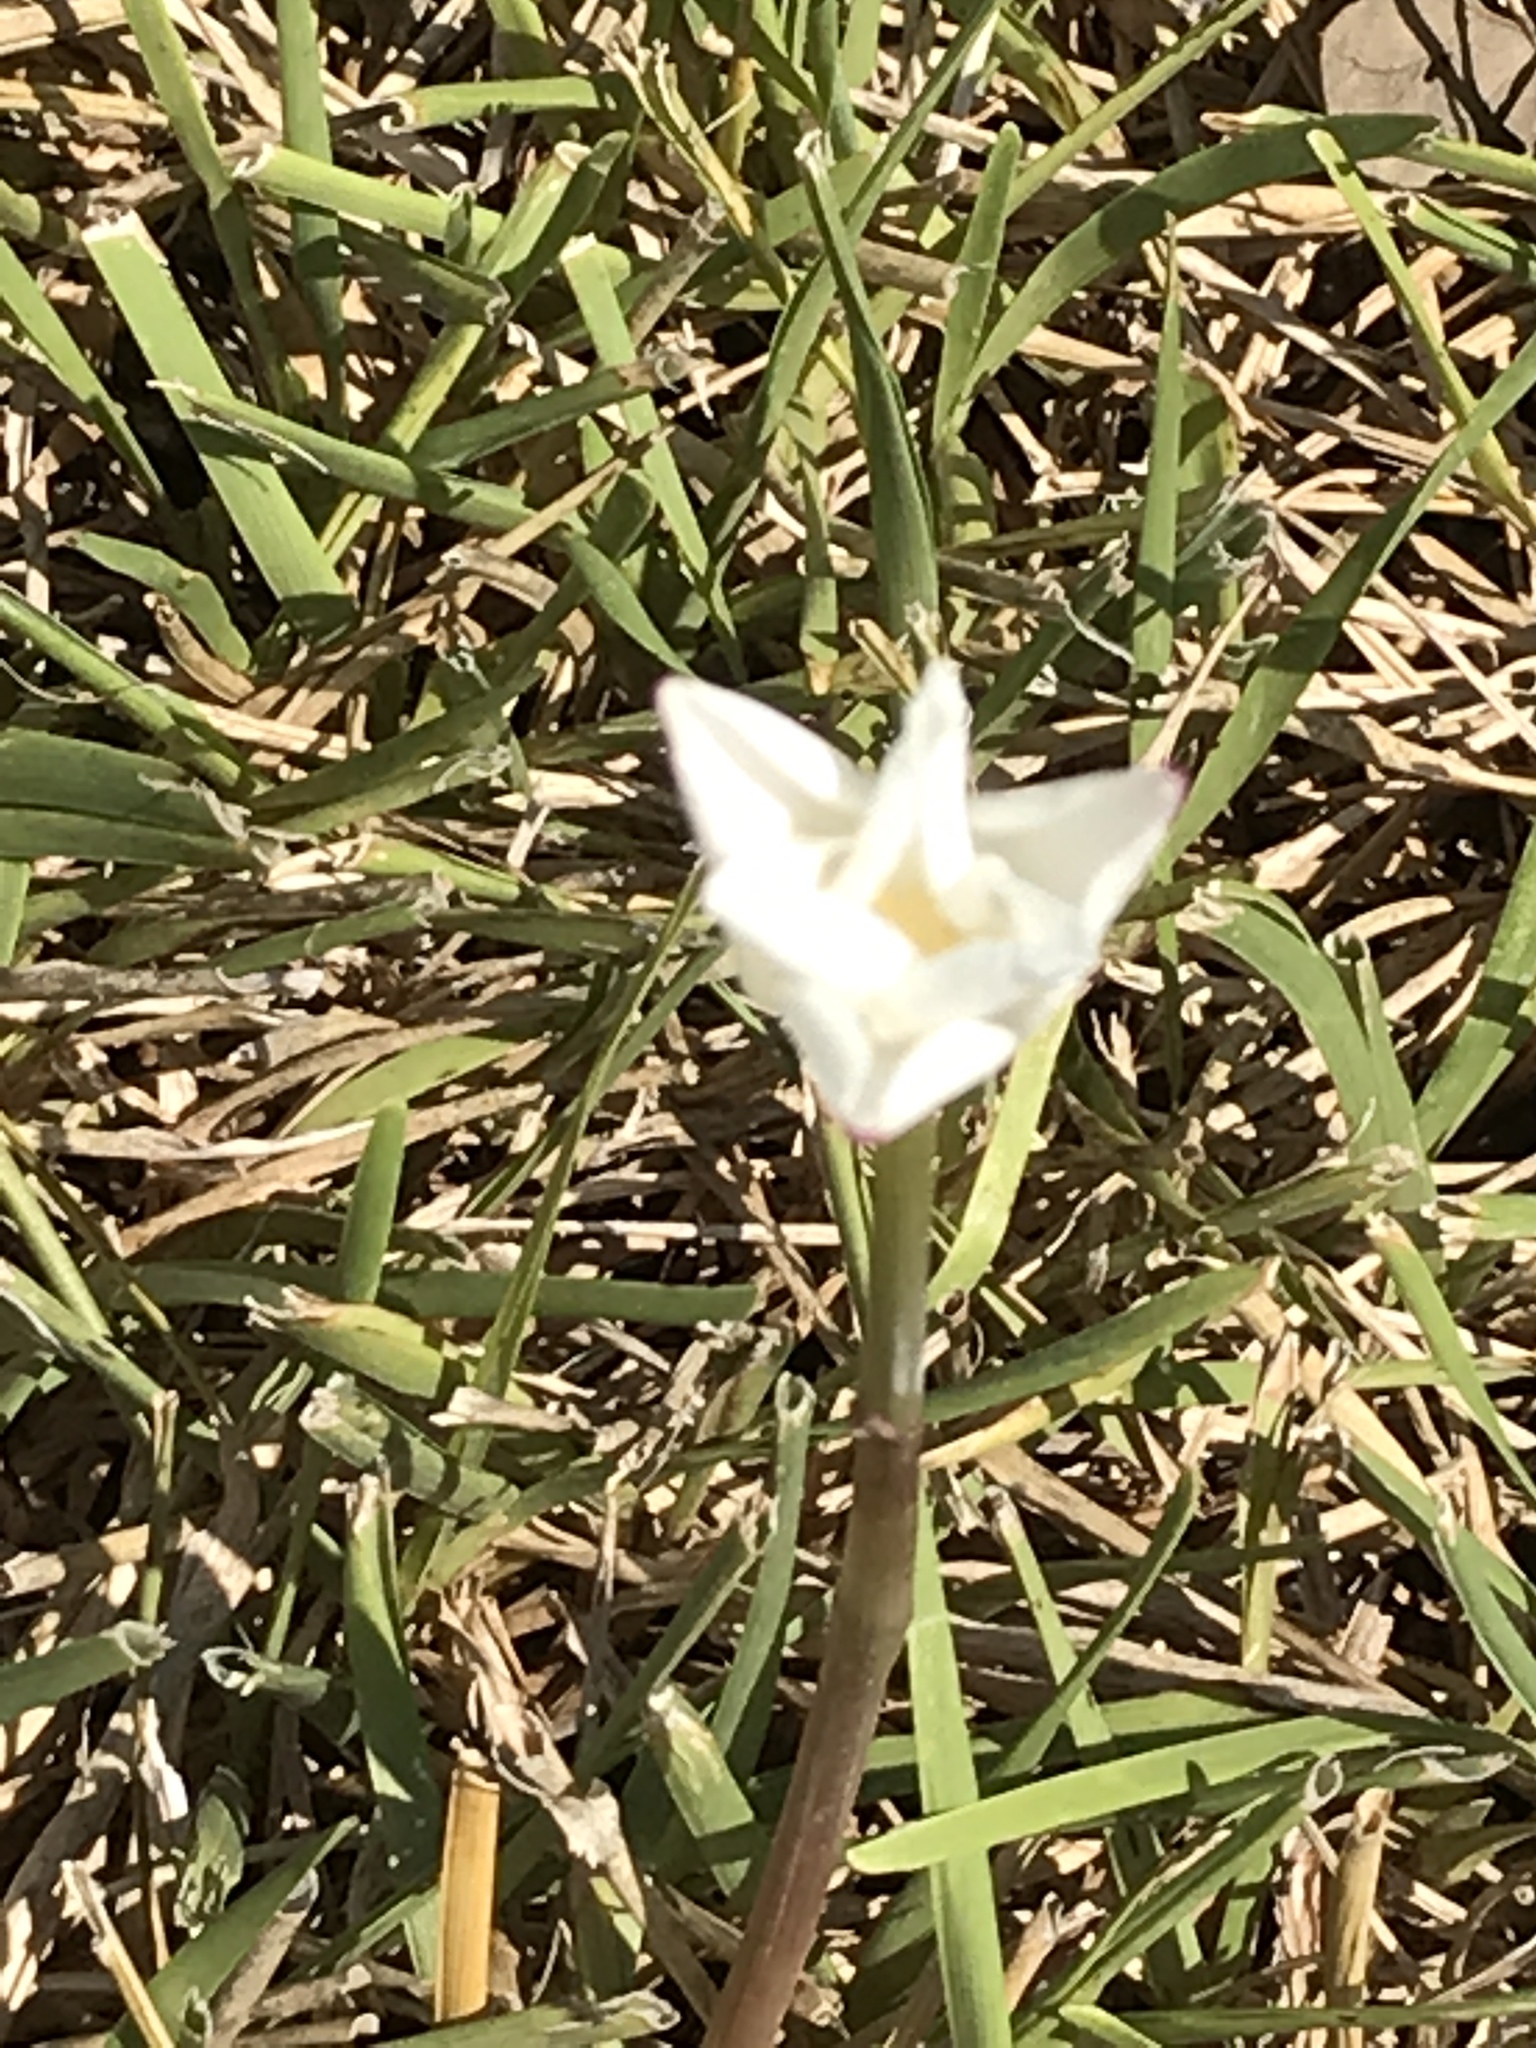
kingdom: Plantae
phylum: Tracheophyta
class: Liliopsida
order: Asparagales
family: Amaryllidaceae
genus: Zephyranthes
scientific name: Zephyranthes chlorosolen
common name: Evening rain-lily
